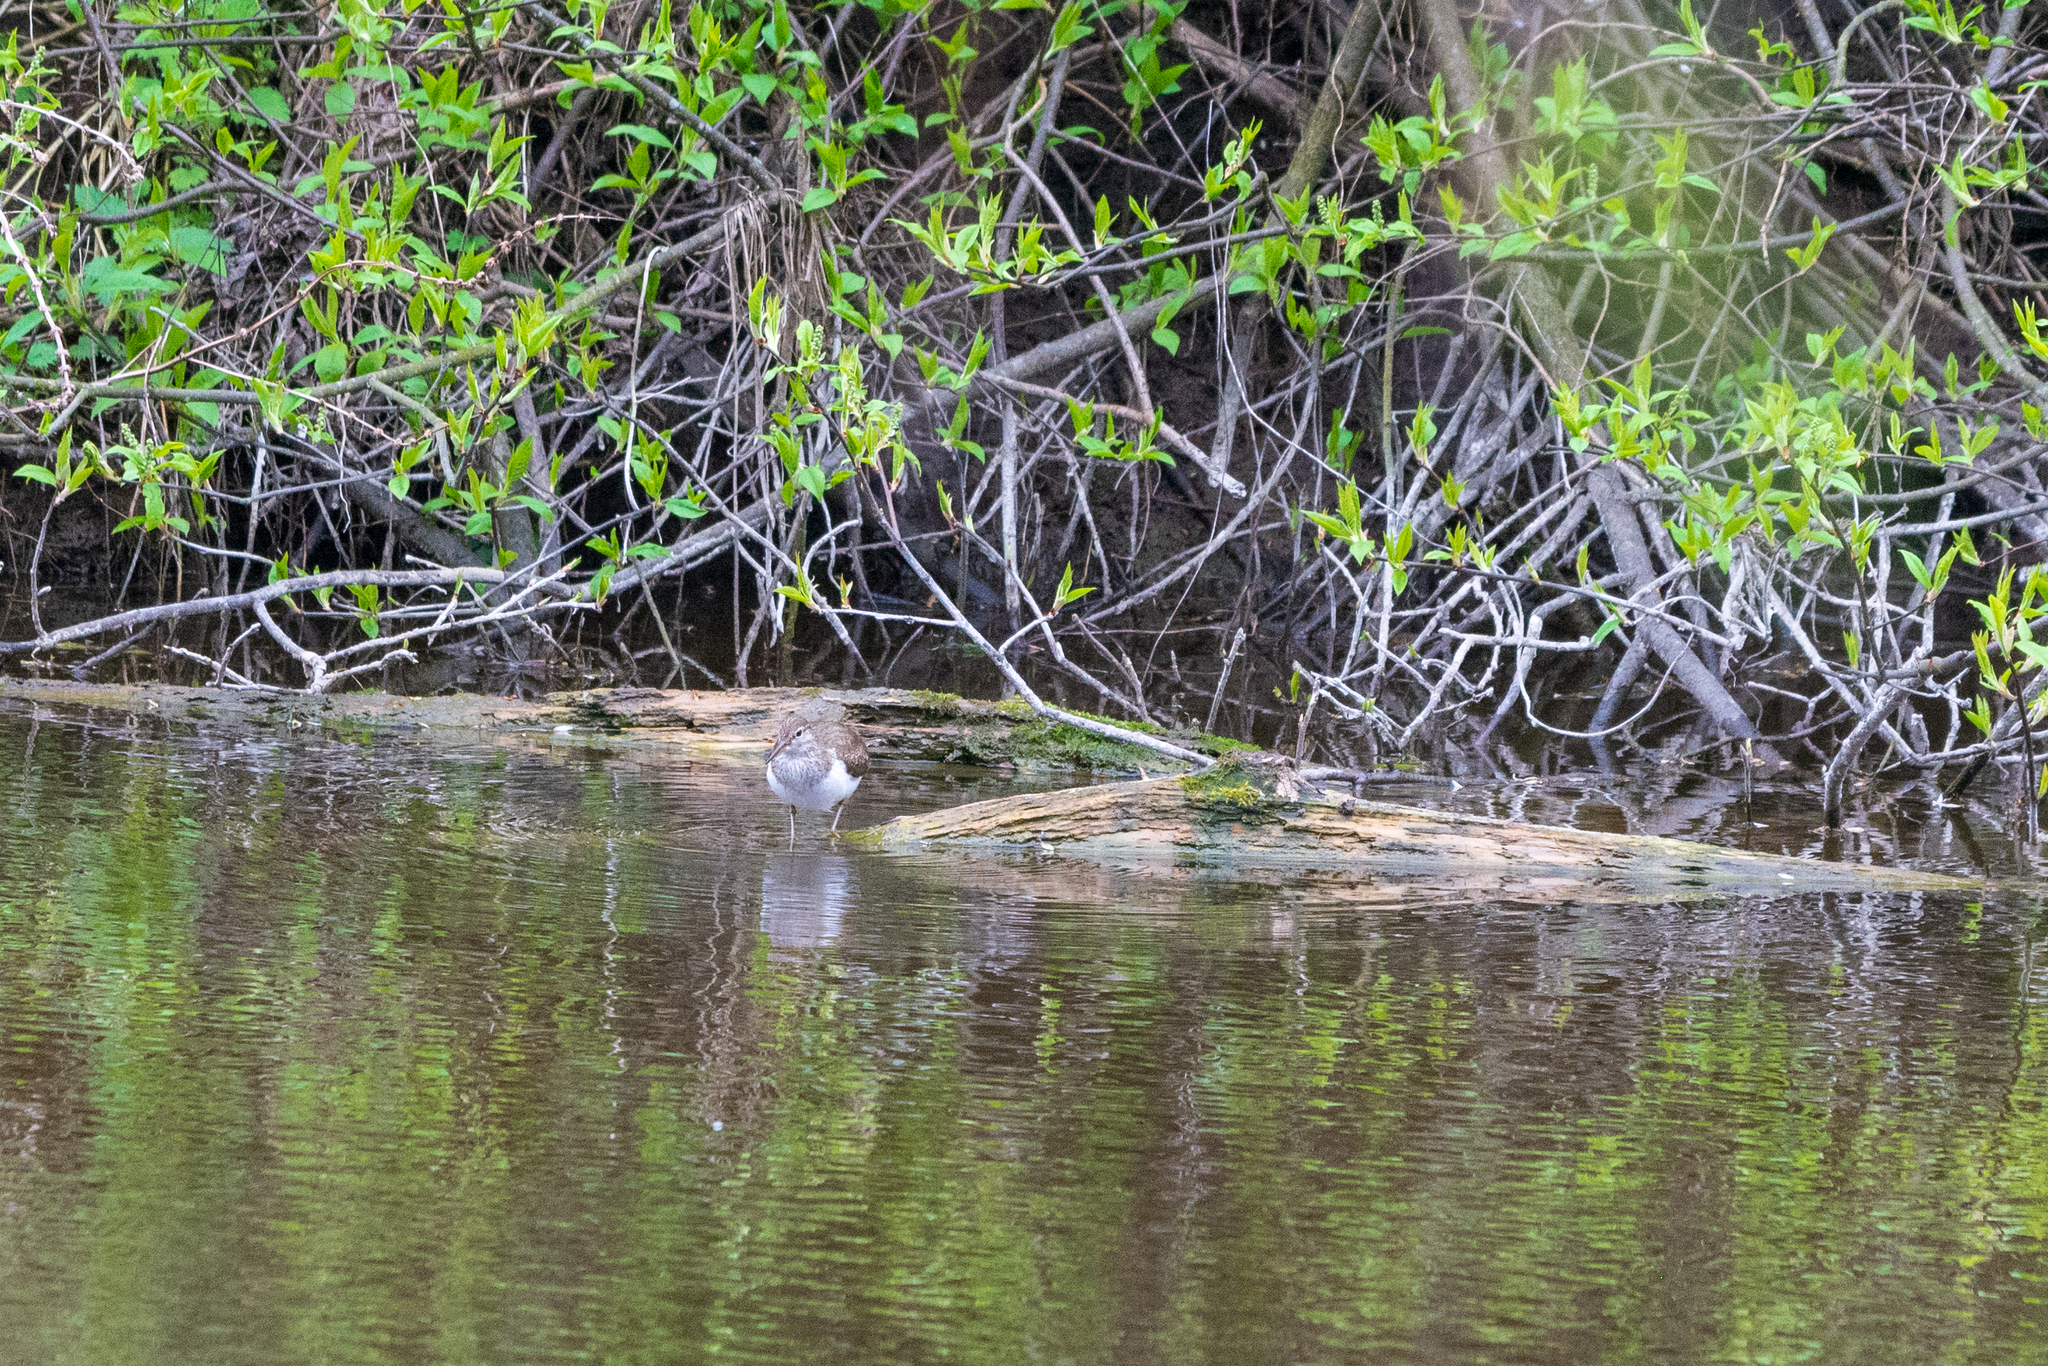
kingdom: Animalia
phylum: Chordata
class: Aves
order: Charadriiformes
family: Scolopacidae
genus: Actitis
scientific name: Actitis hypoleucos
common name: Common sandpiper
